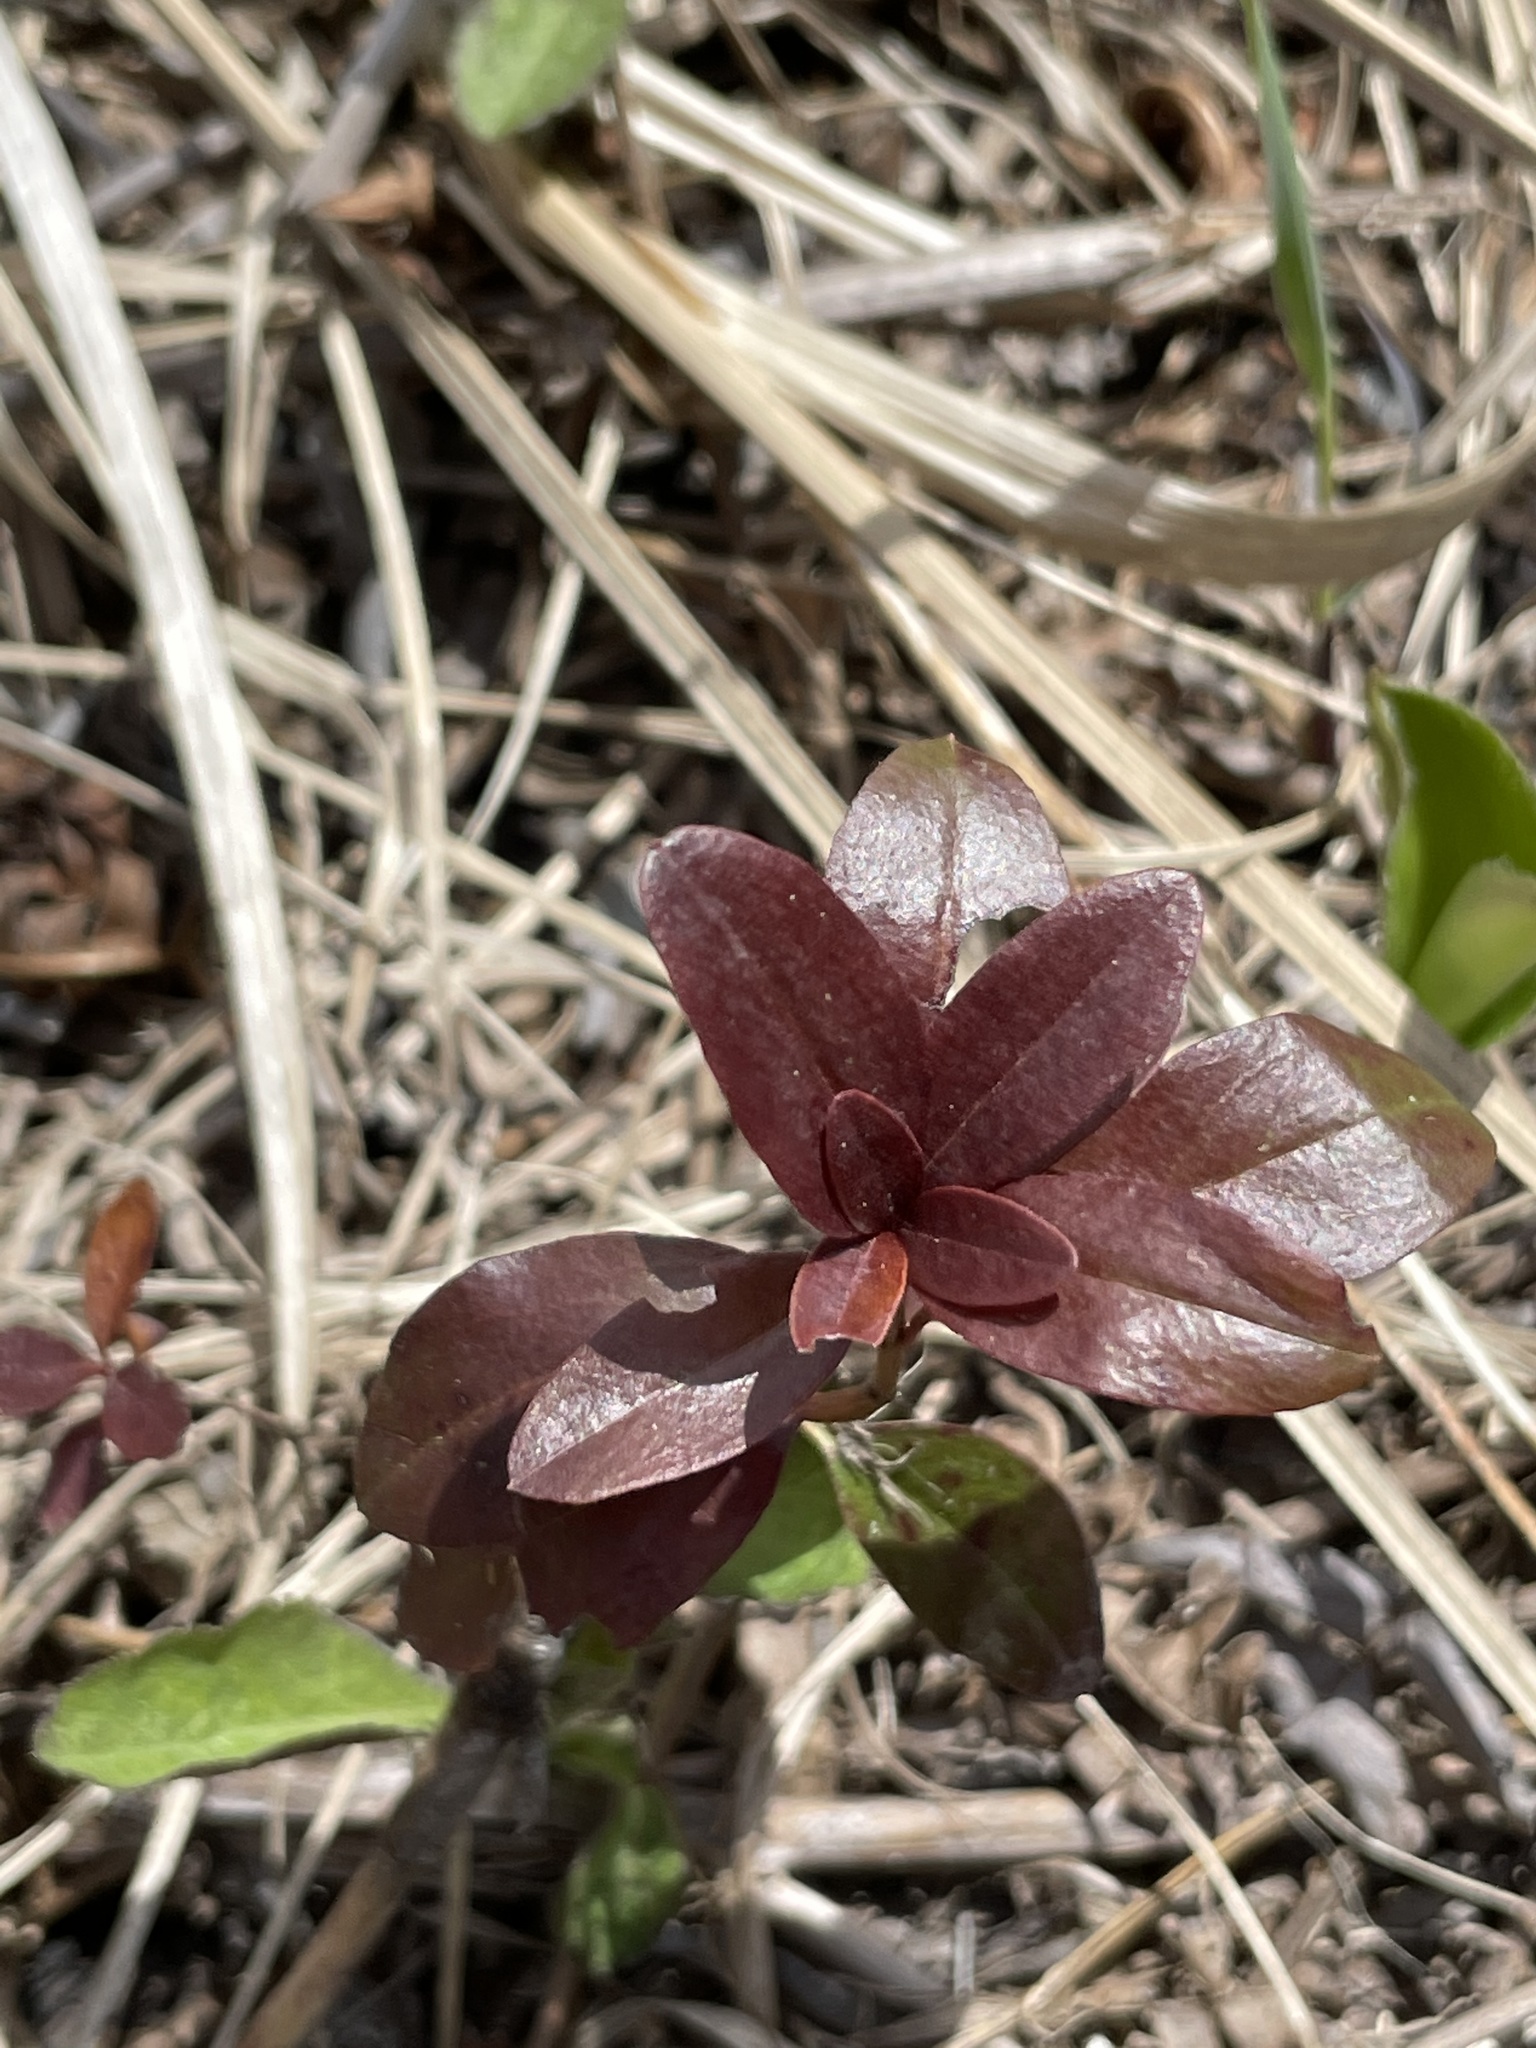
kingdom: Plantae
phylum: Tracheophyta
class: Magnoliopsida
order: Ericales
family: Ericaceae
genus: Vaccinium
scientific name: Vaccinium vitis-idaea
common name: Cowberry
